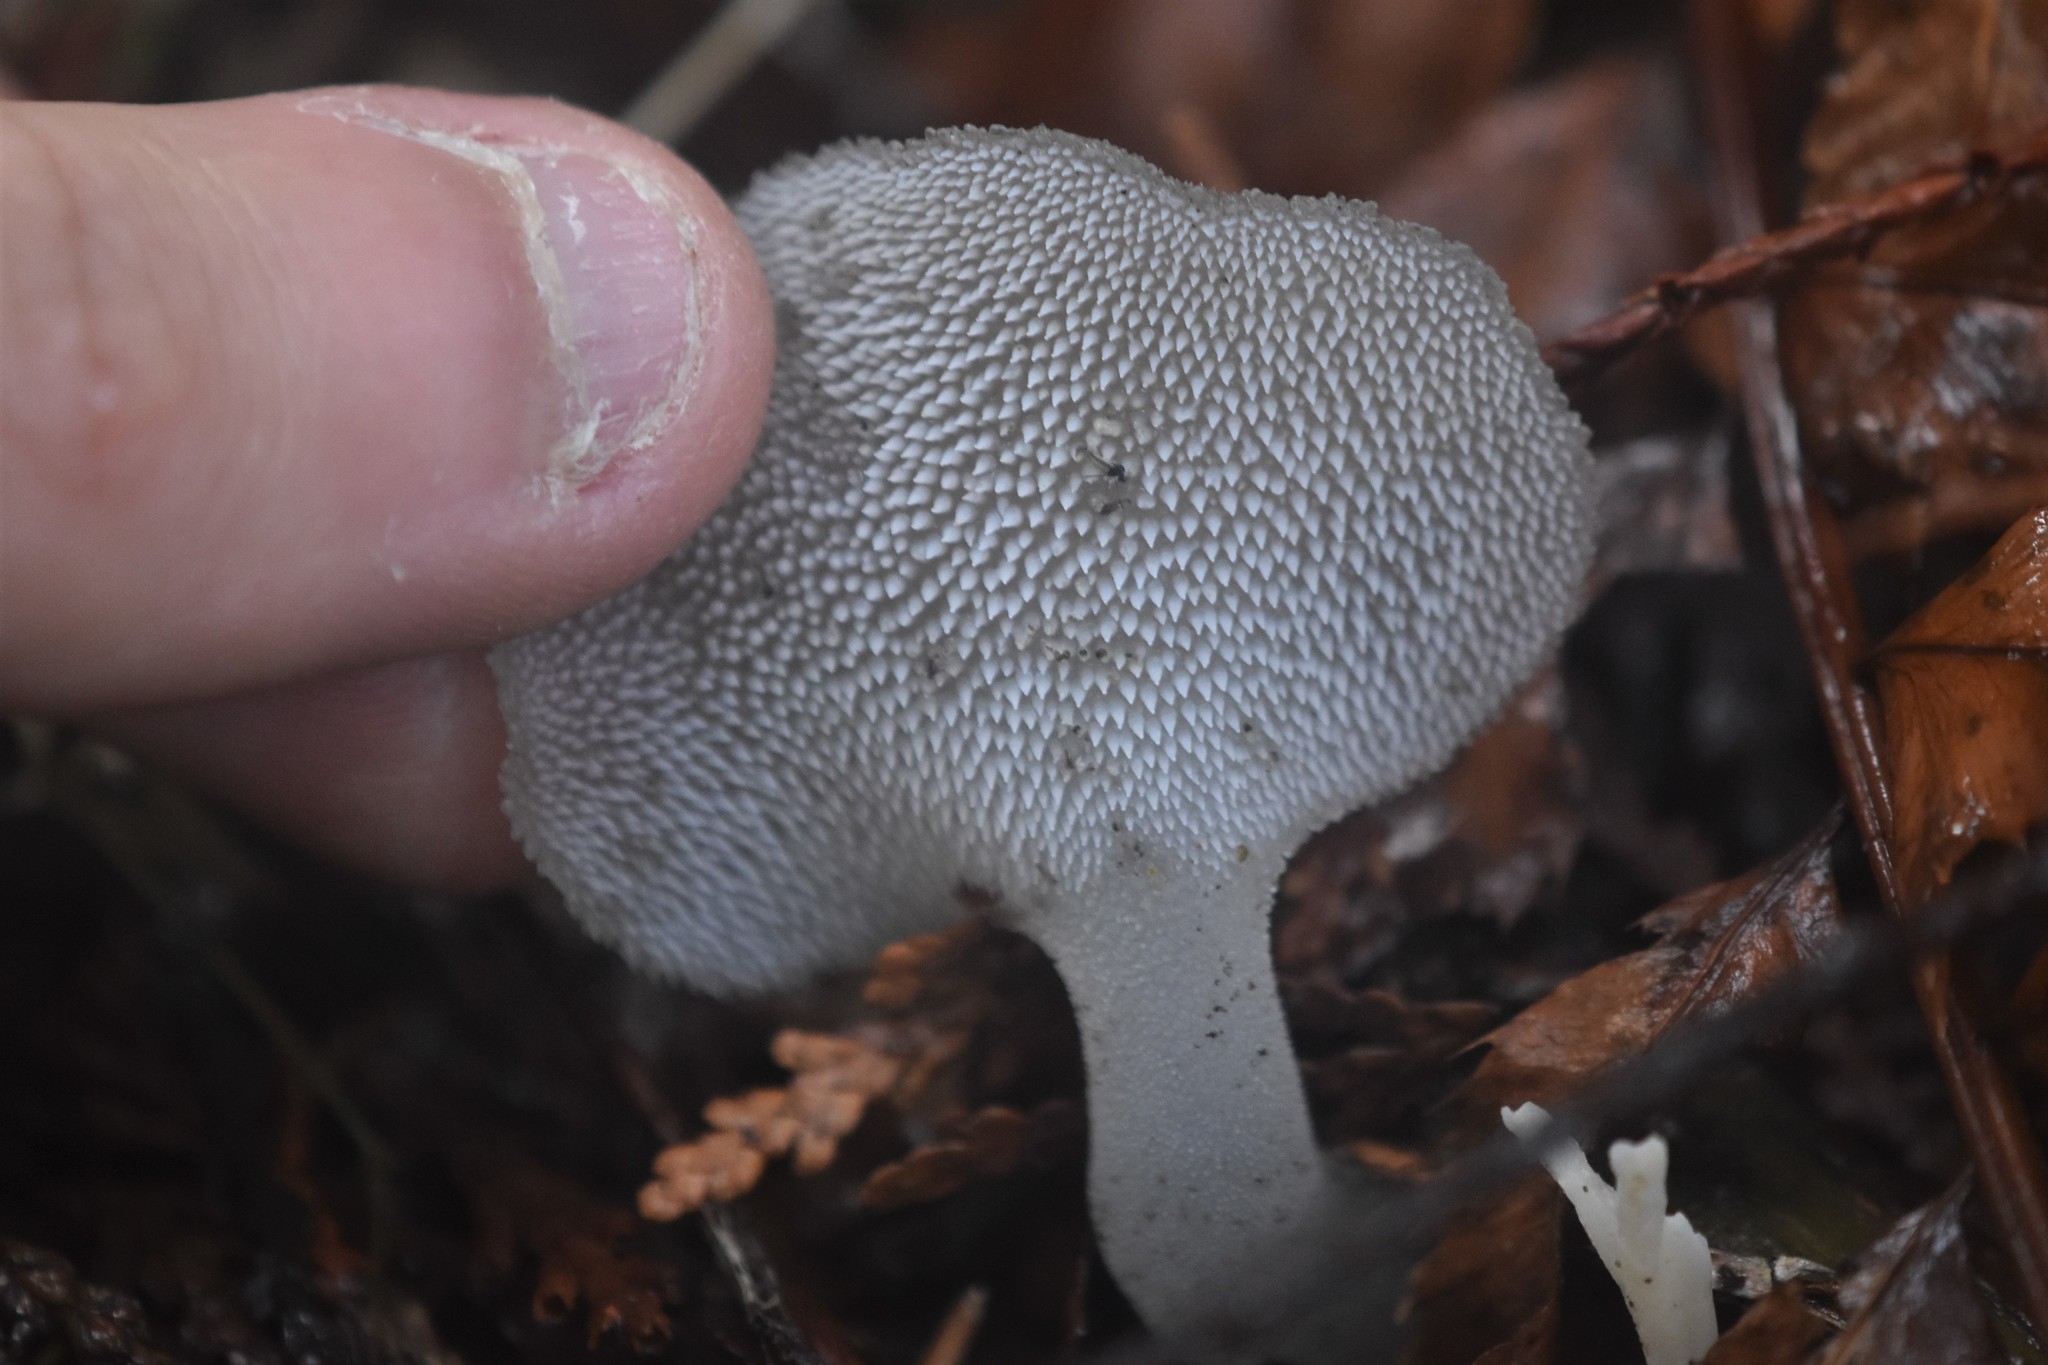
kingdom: Fungi
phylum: Basidiomycota
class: Agaricomycetes
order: Auriculariales
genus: Pseudohydnum
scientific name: Pseudohydnum gelatinosum
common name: Jelly tongue
